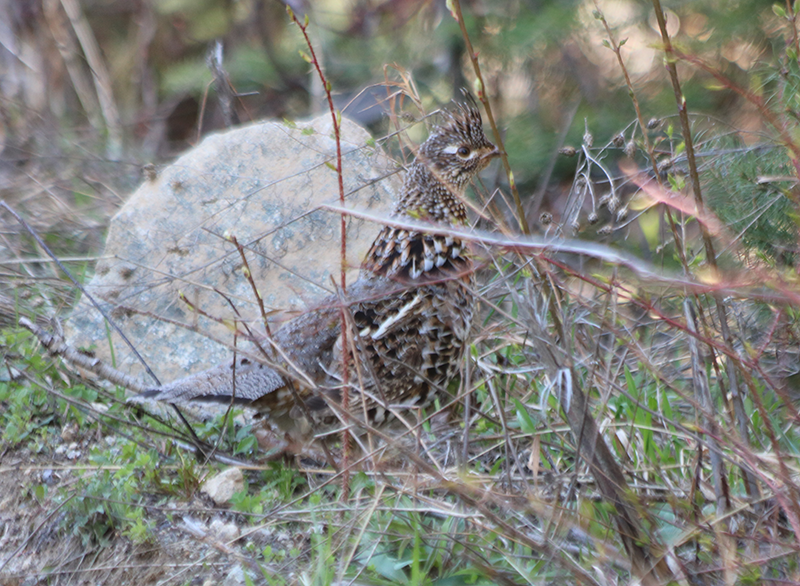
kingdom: Animalia
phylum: Chordata
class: Aves
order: Galliformes
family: Phasianidae
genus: Bonasa
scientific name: Bonasa umbellus
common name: Ruffed grouse
